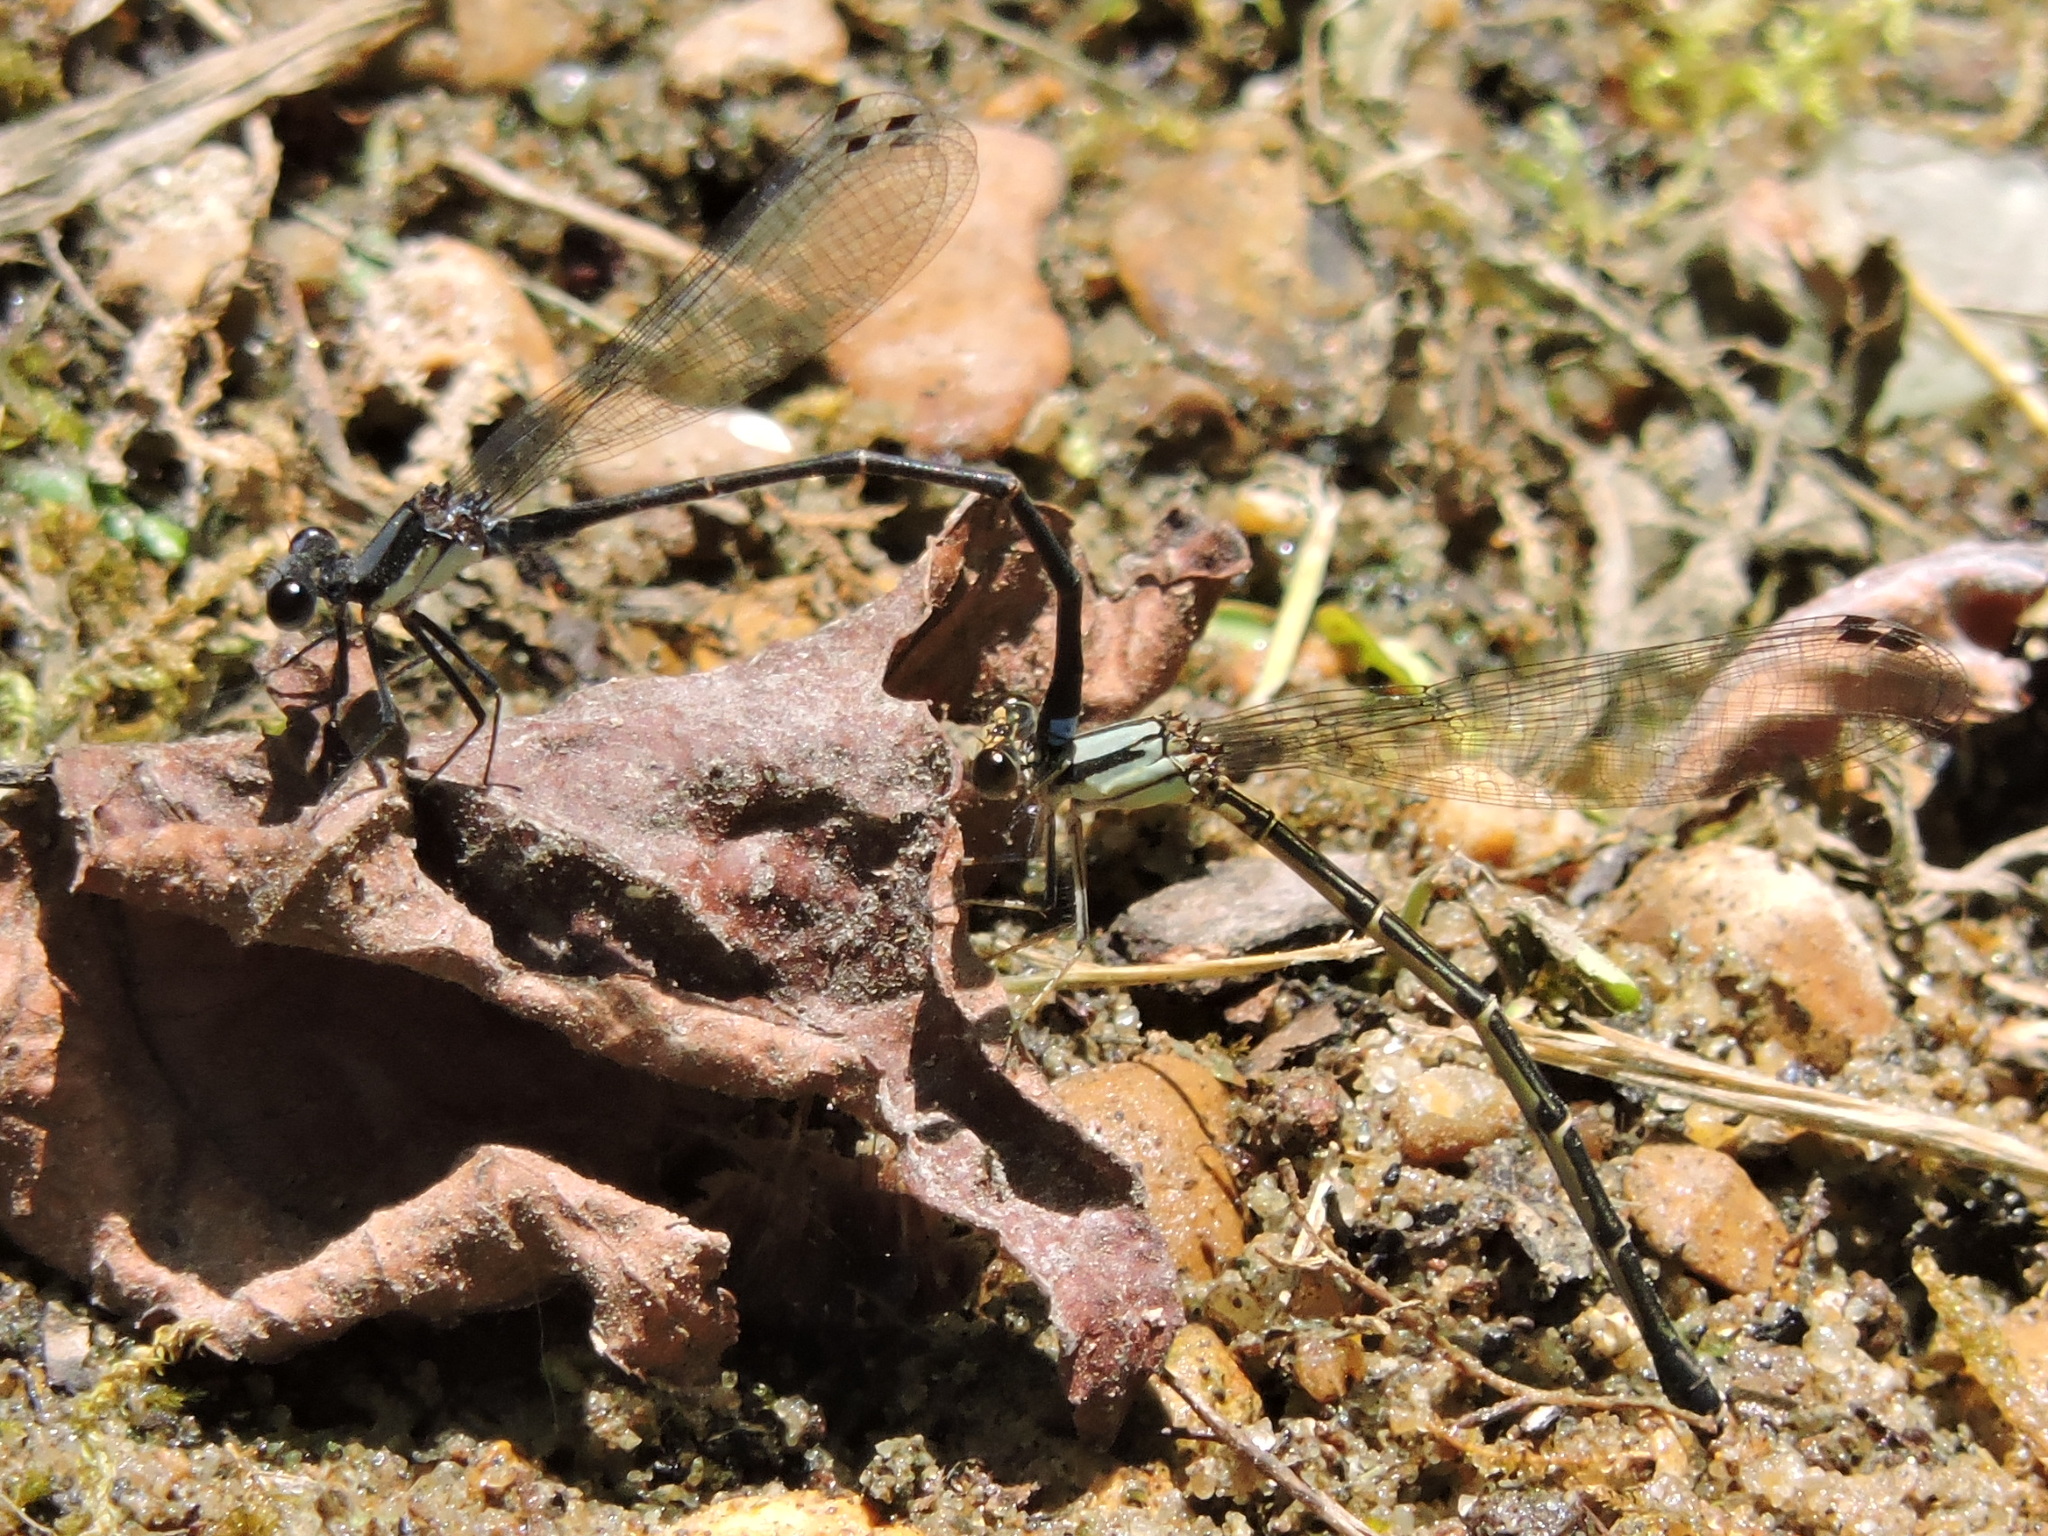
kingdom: Animalia
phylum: Arthropoda
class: Insecta
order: Odonata
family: Coenagrionidae
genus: Argia
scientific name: Argia tibialis
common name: Blue-tipped dancer
